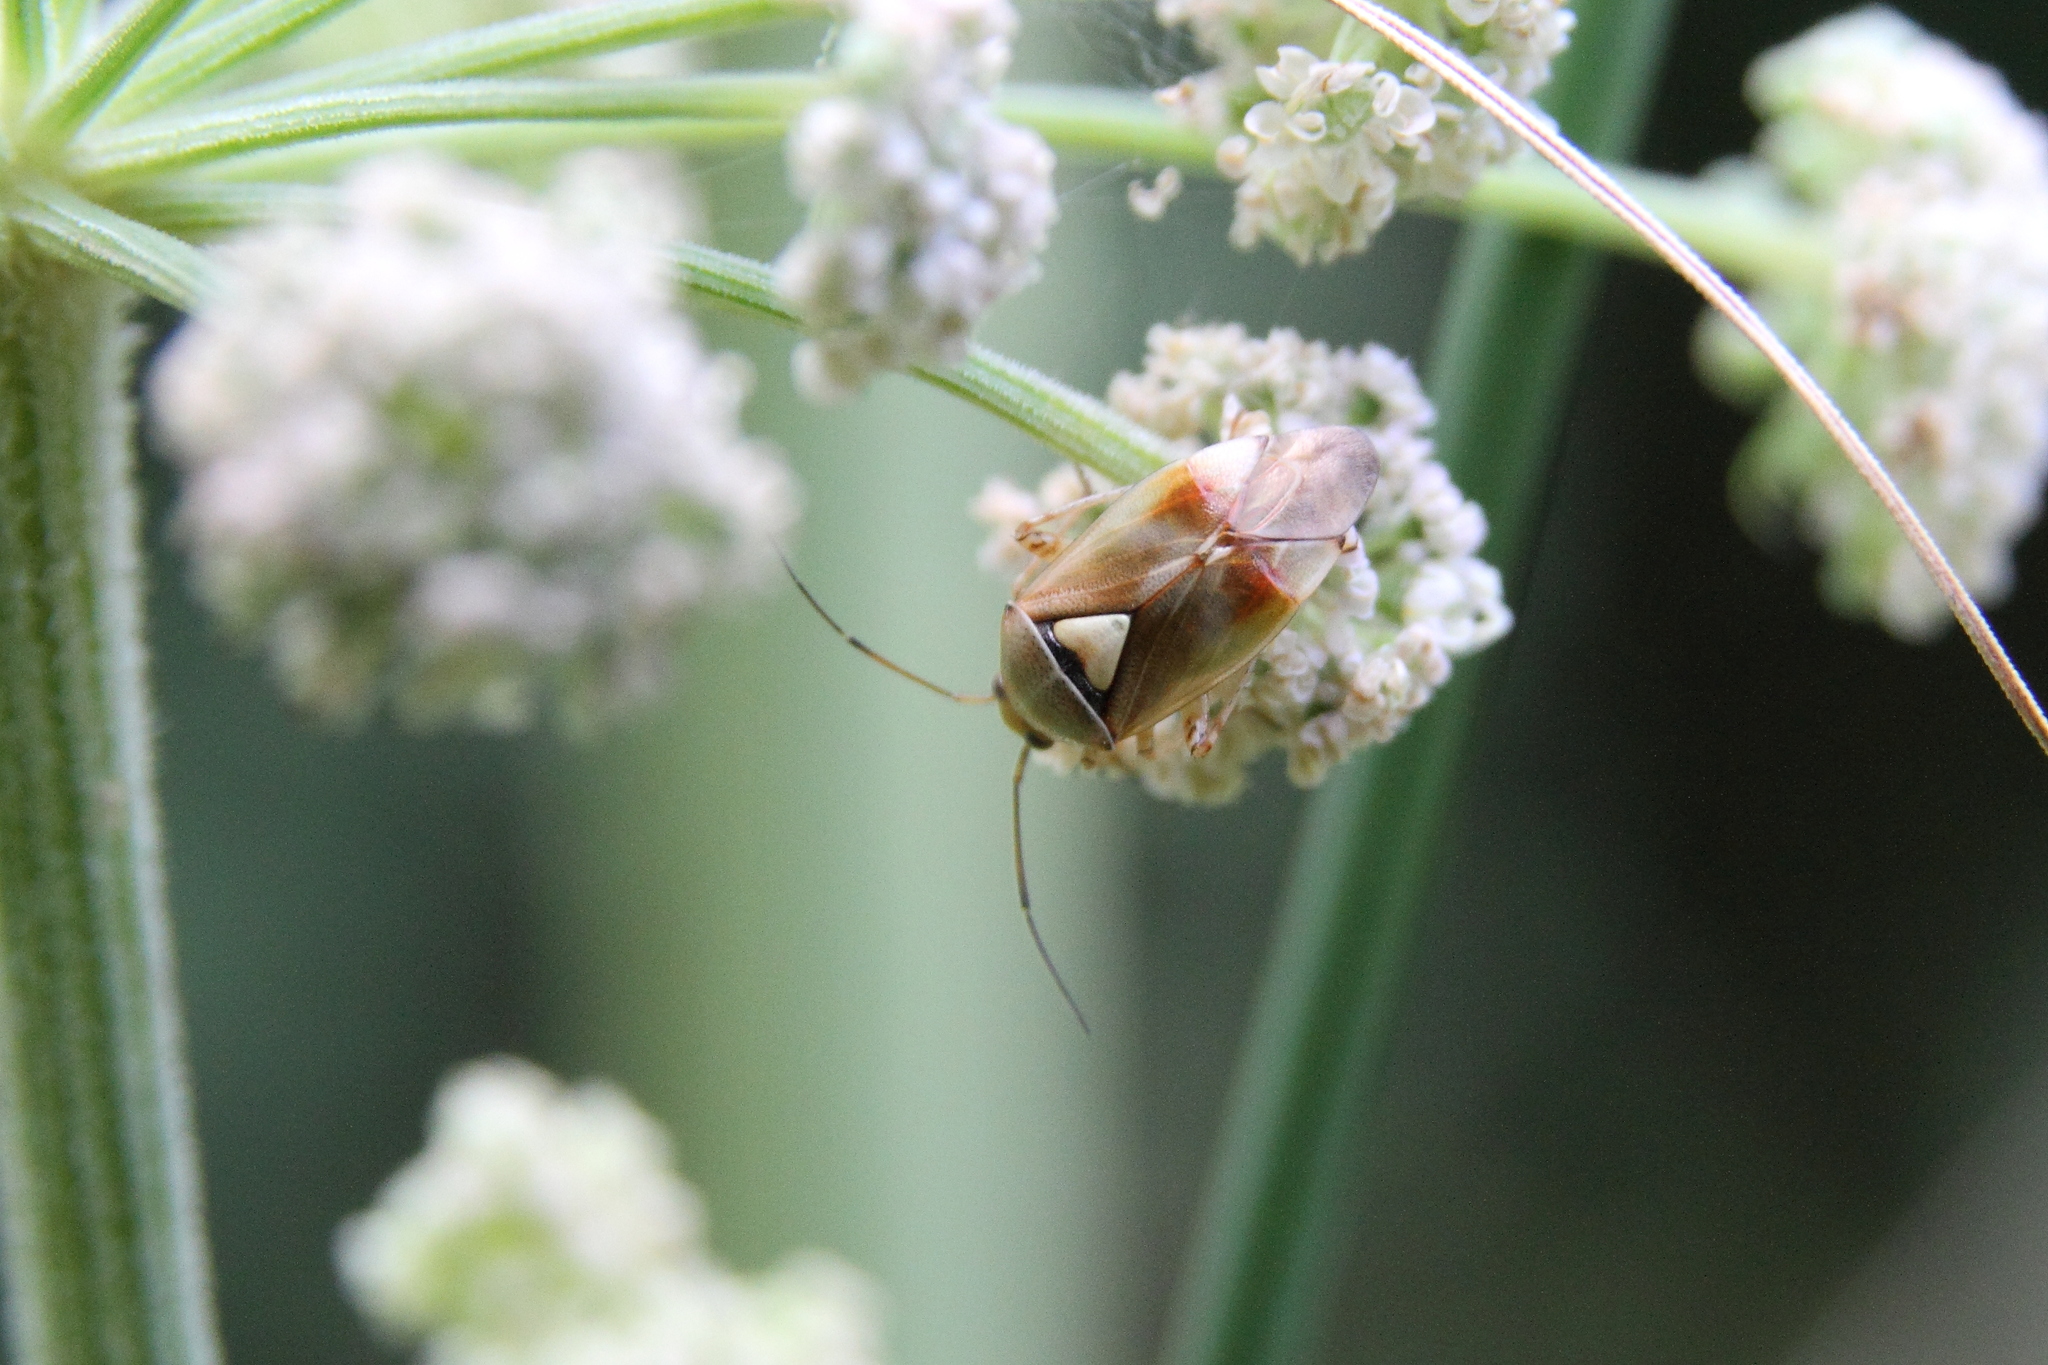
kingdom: Animalia
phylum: Arthropoda
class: Insecta
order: Hemiptera
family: Miridae
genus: Lygus
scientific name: Lygus pratensis
